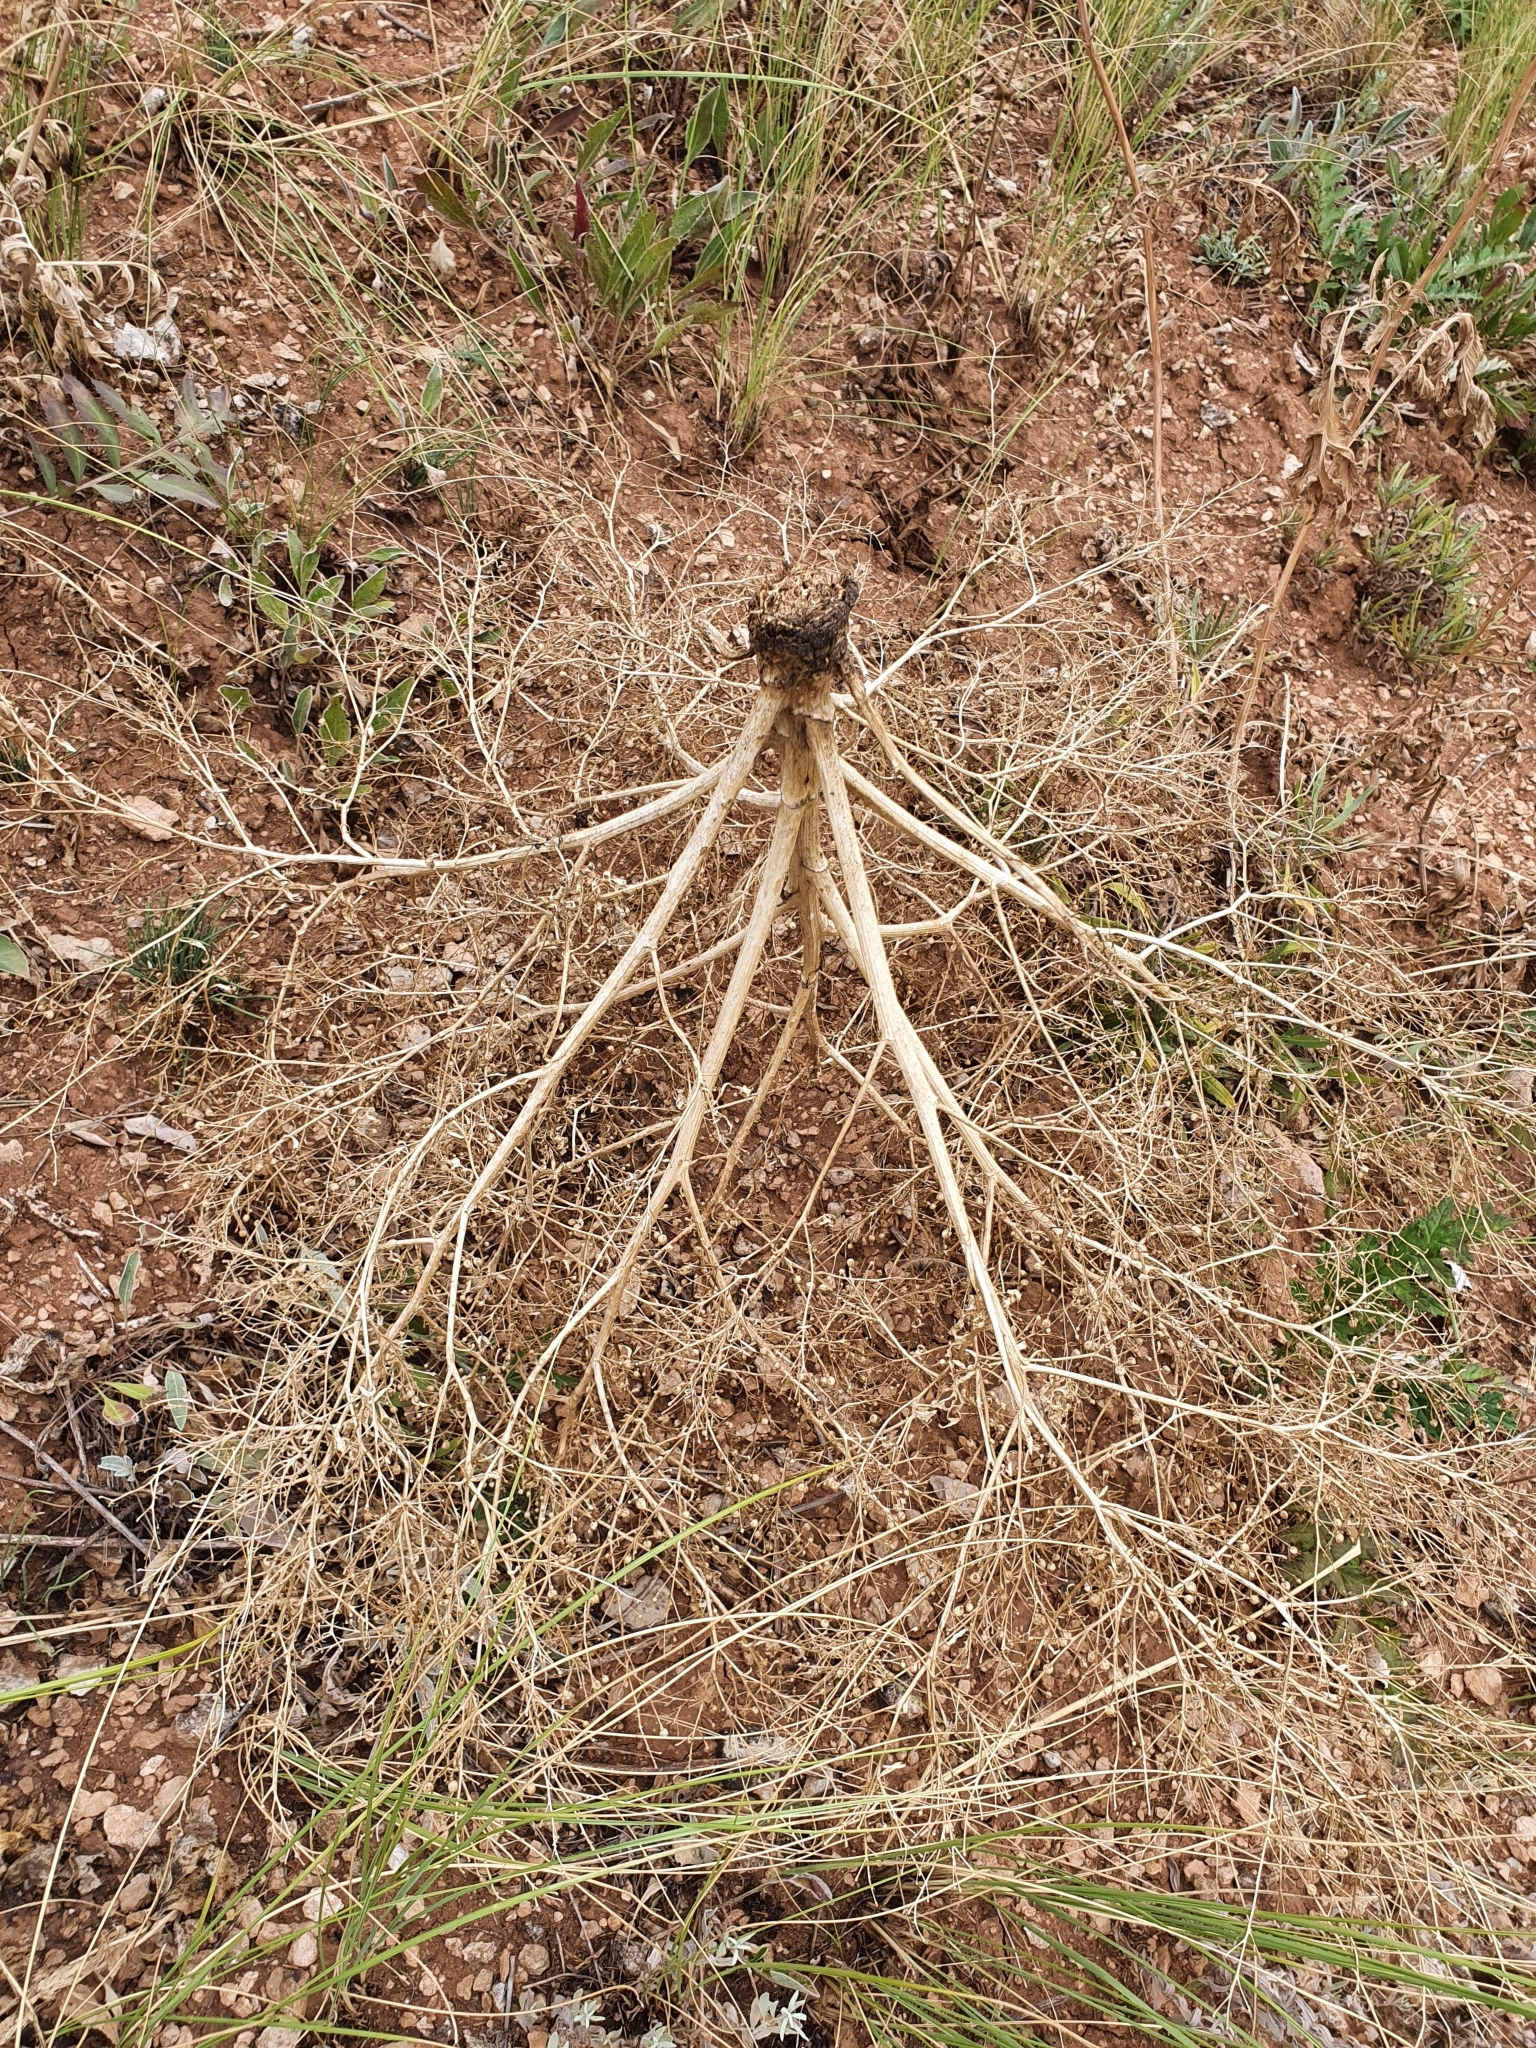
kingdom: Plantae
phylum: Tracheophyta
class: Magnoliopsida
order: Brassicales
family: Brassicaceae
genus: Crambe
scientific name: Crambe tataria
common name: Tartarian breadplant
